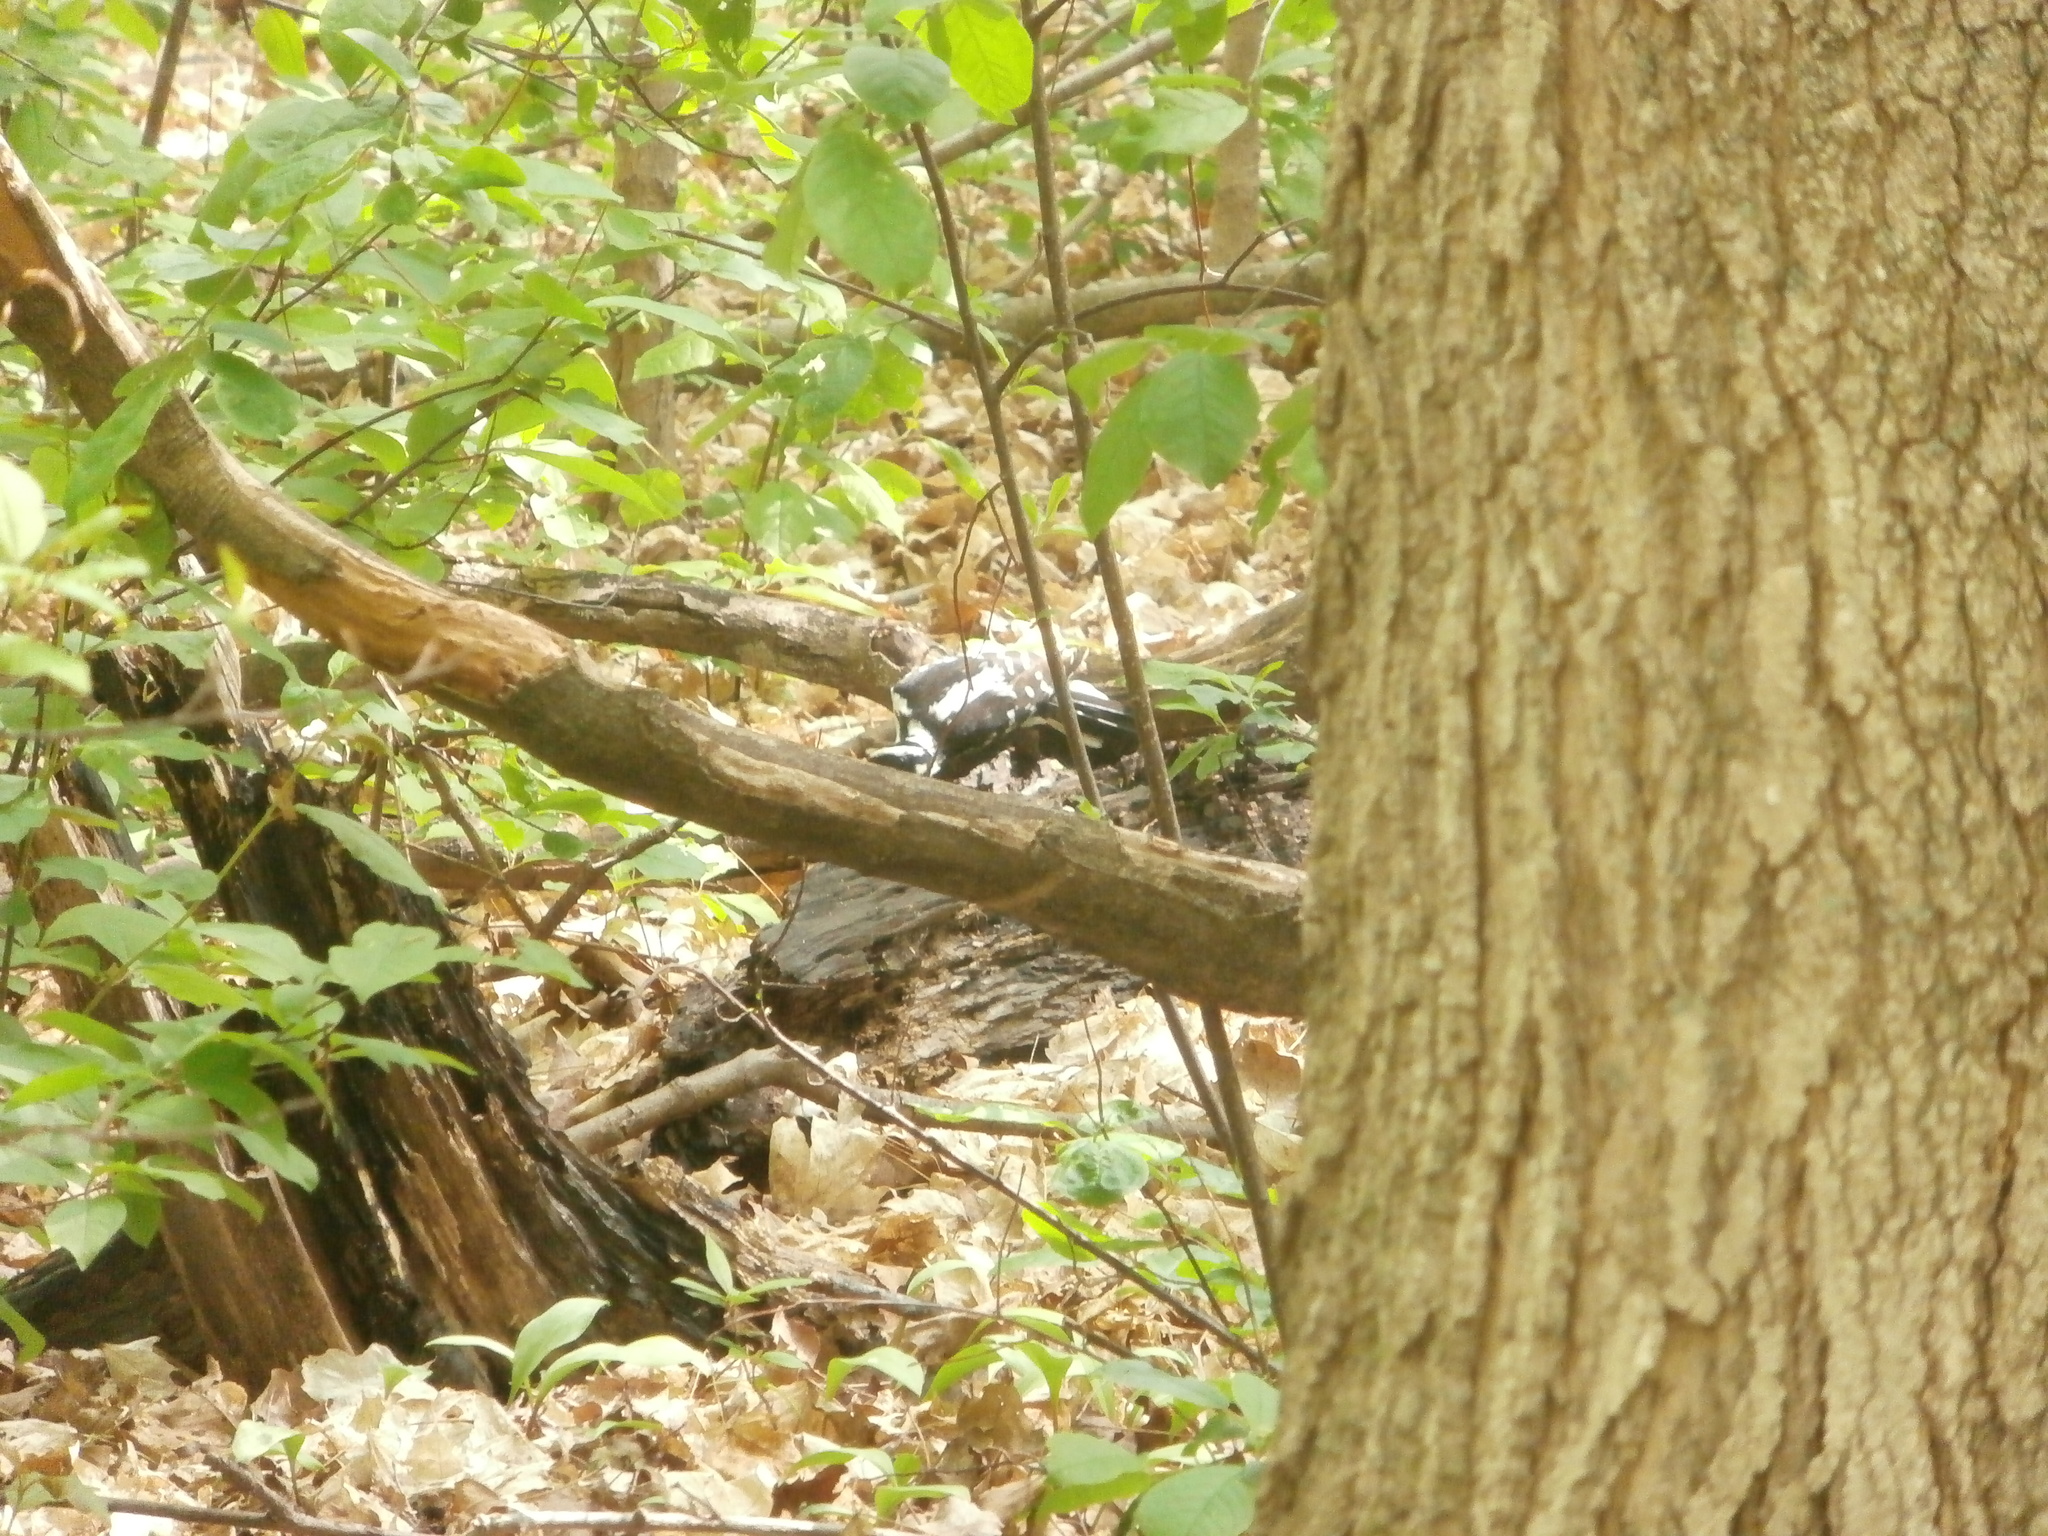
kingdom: Animalia
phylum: Chordata
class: Aves
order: Piciformes
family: Picidae
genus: Leuconotopicus
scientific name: Leuconotopicus villosus
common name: Hairy woodpecker
